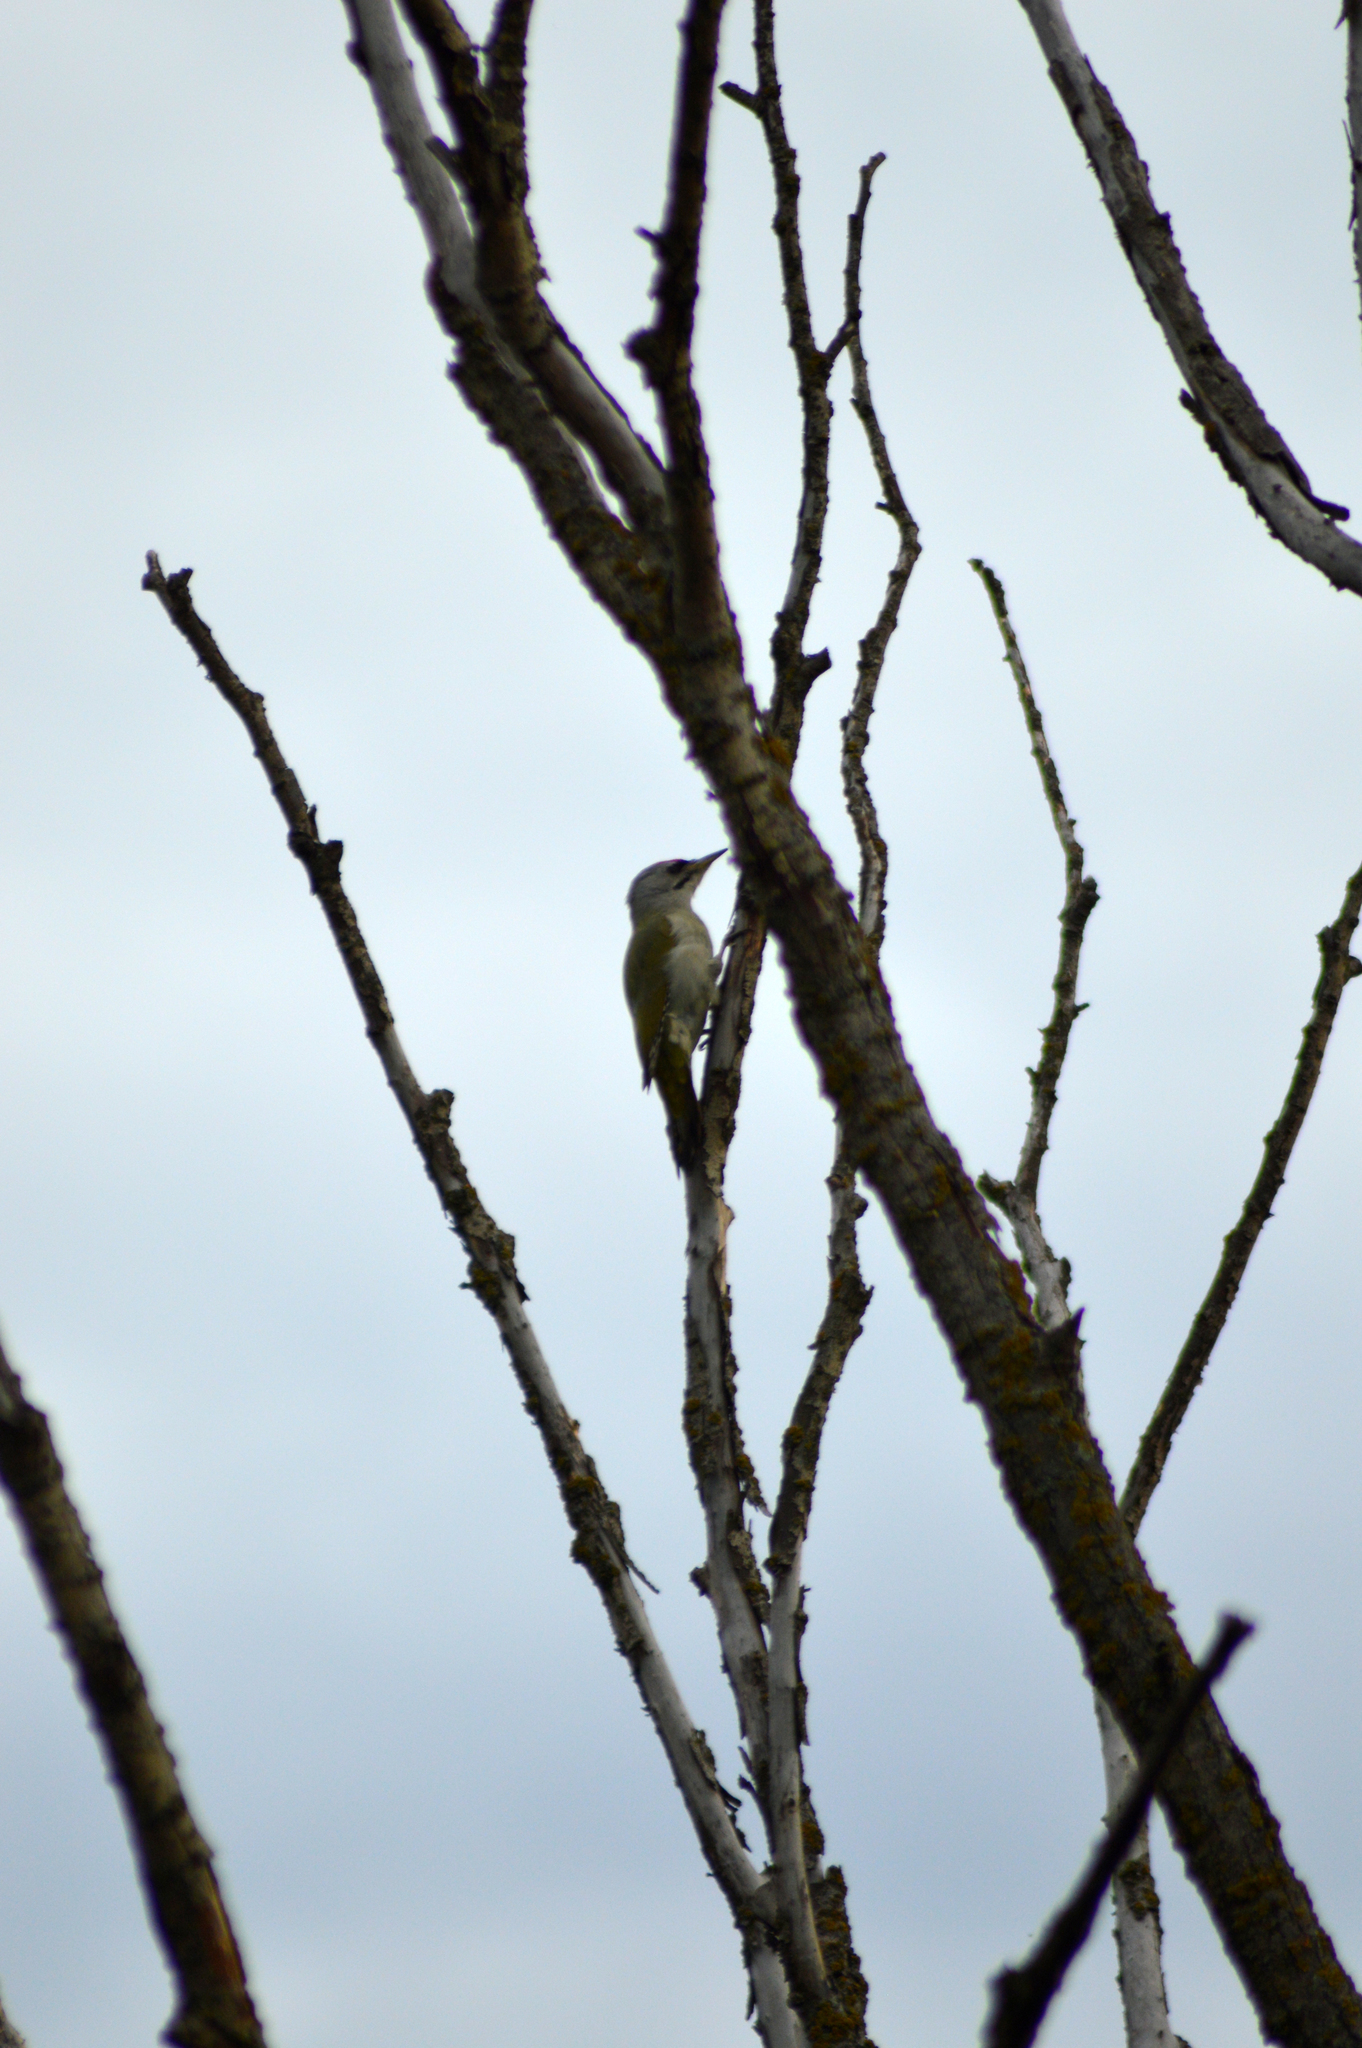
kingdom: Animalia
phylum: Chordata
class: Aves
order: Piciformes
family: Picidae
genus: Picus
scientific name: Picus canus
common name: Grey-headed woodpecker
